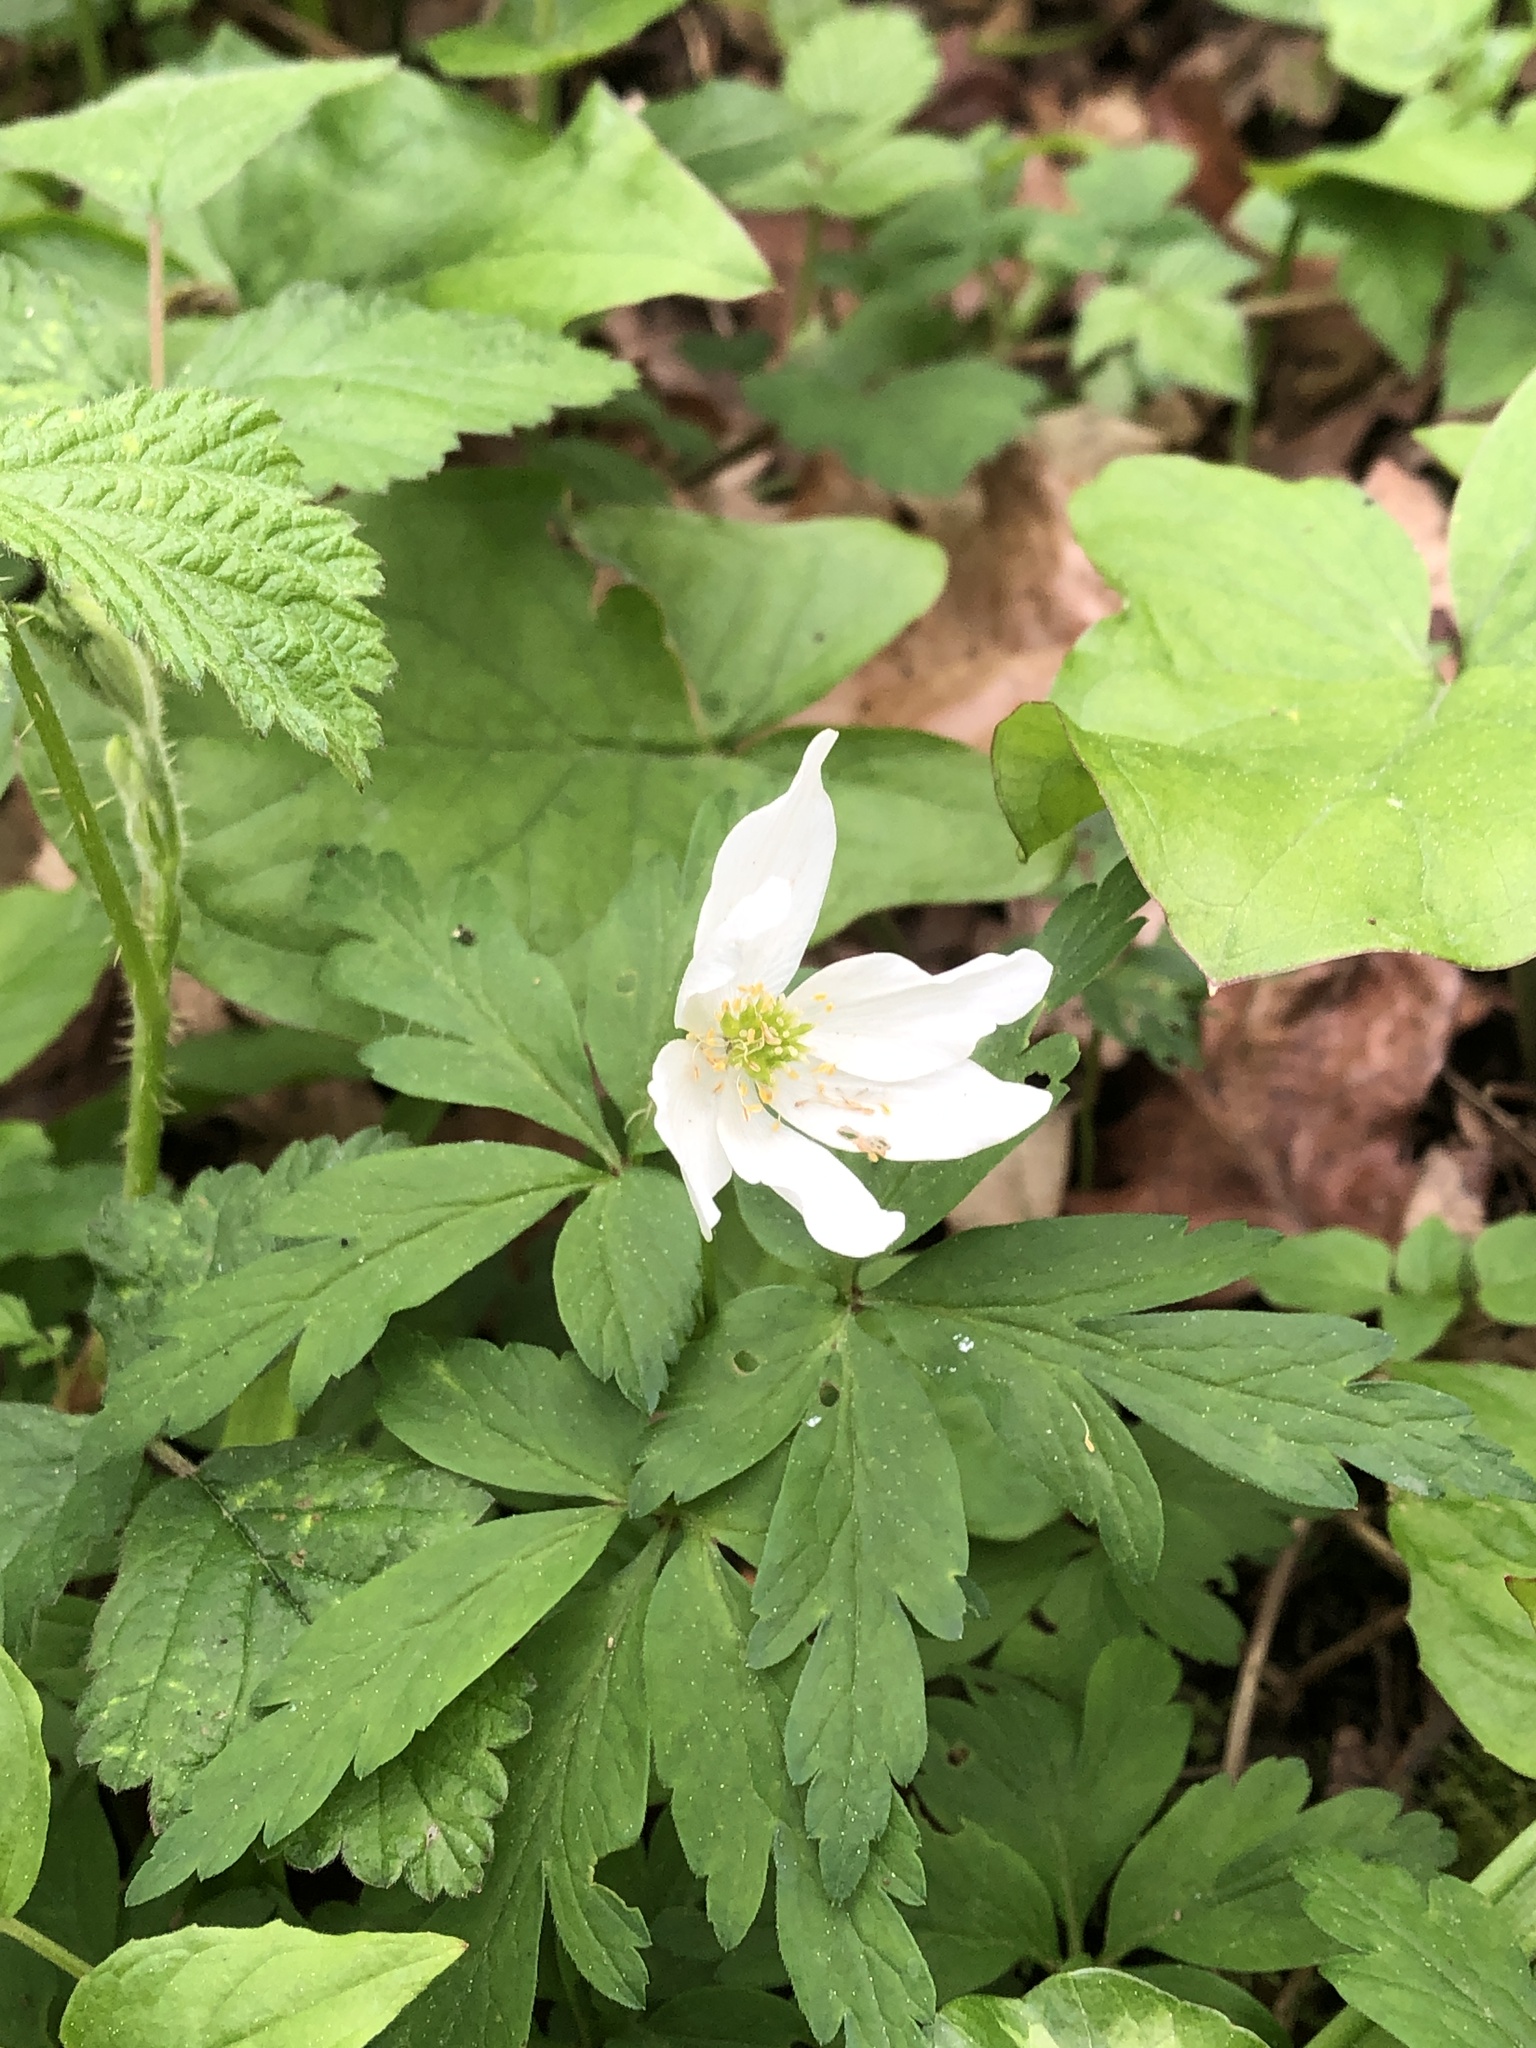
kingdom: Plantae
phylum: Tracheophyta
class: Magnoliopsida
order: Ranunculales
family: Ranunculaceae
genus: Anemone
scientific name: Anemone nemorosa
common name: Wood anemone
